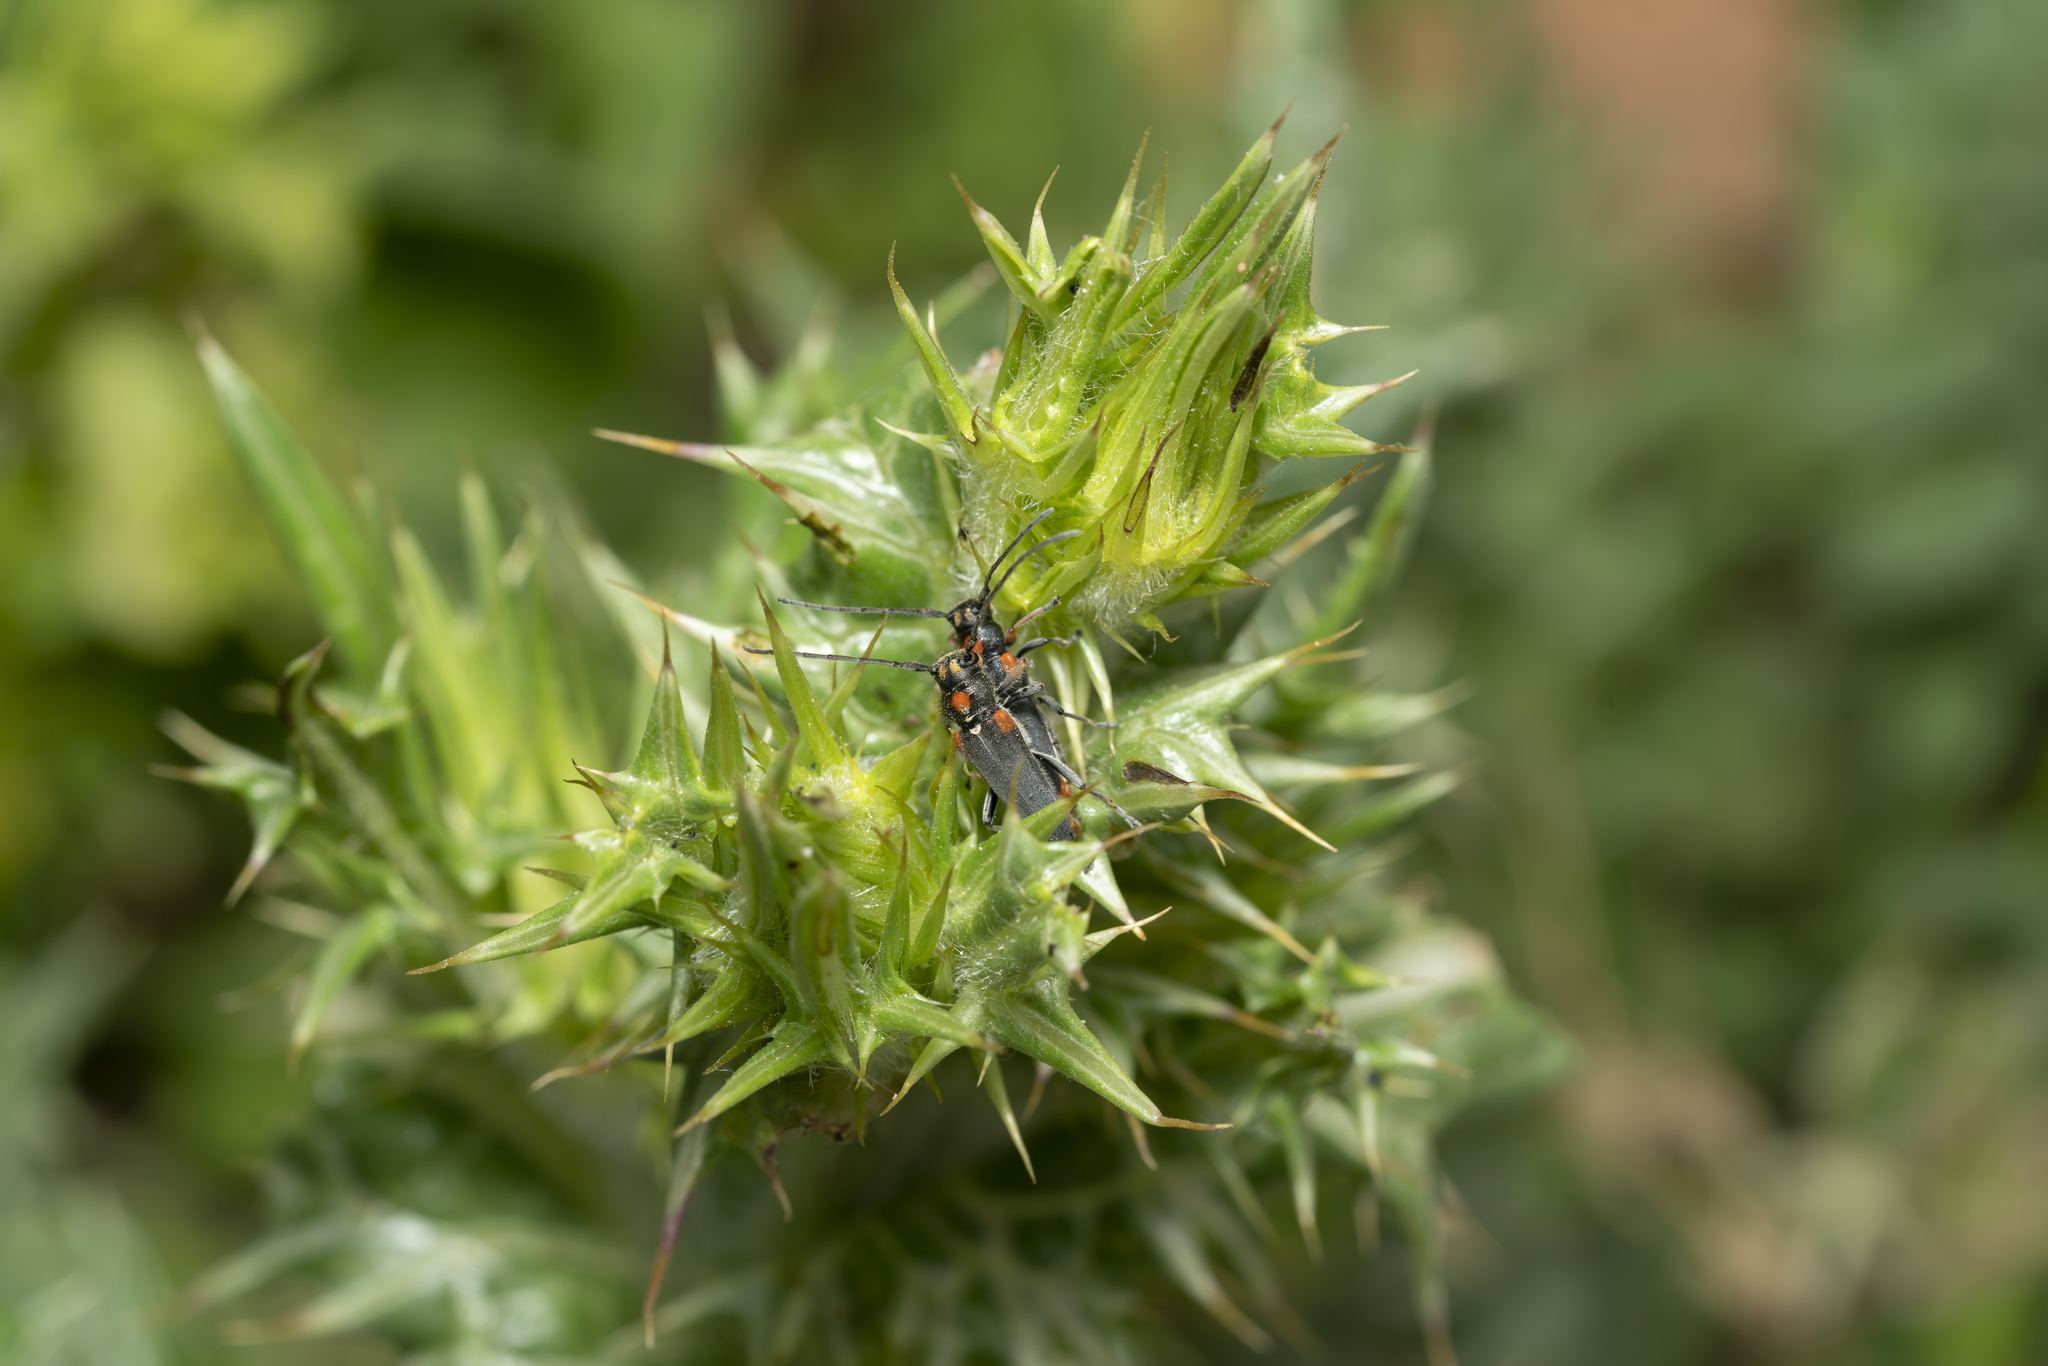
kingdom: Animalia
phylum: Arthropoda
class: Insecta
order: Coleoptera
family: Cerambycidae
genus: Phytoecia
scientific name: Phytoecia humeralis
